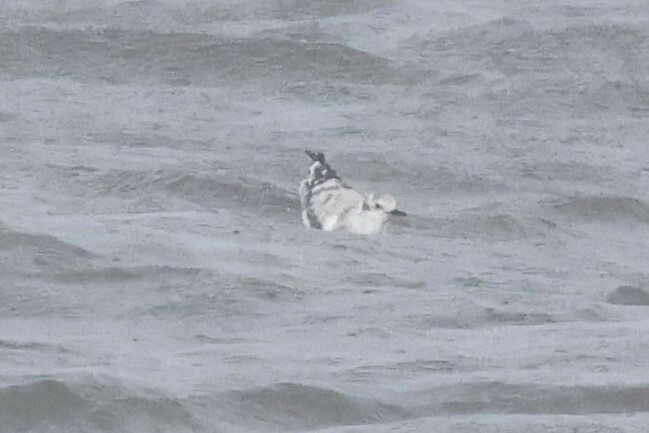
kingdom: Animalia
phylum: Chordata
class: Aves
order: Charadriiformes
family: Laridae
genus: Chroicocephalus
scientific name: Chroicocephalus philadelphia
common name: Bonaparte's gull
